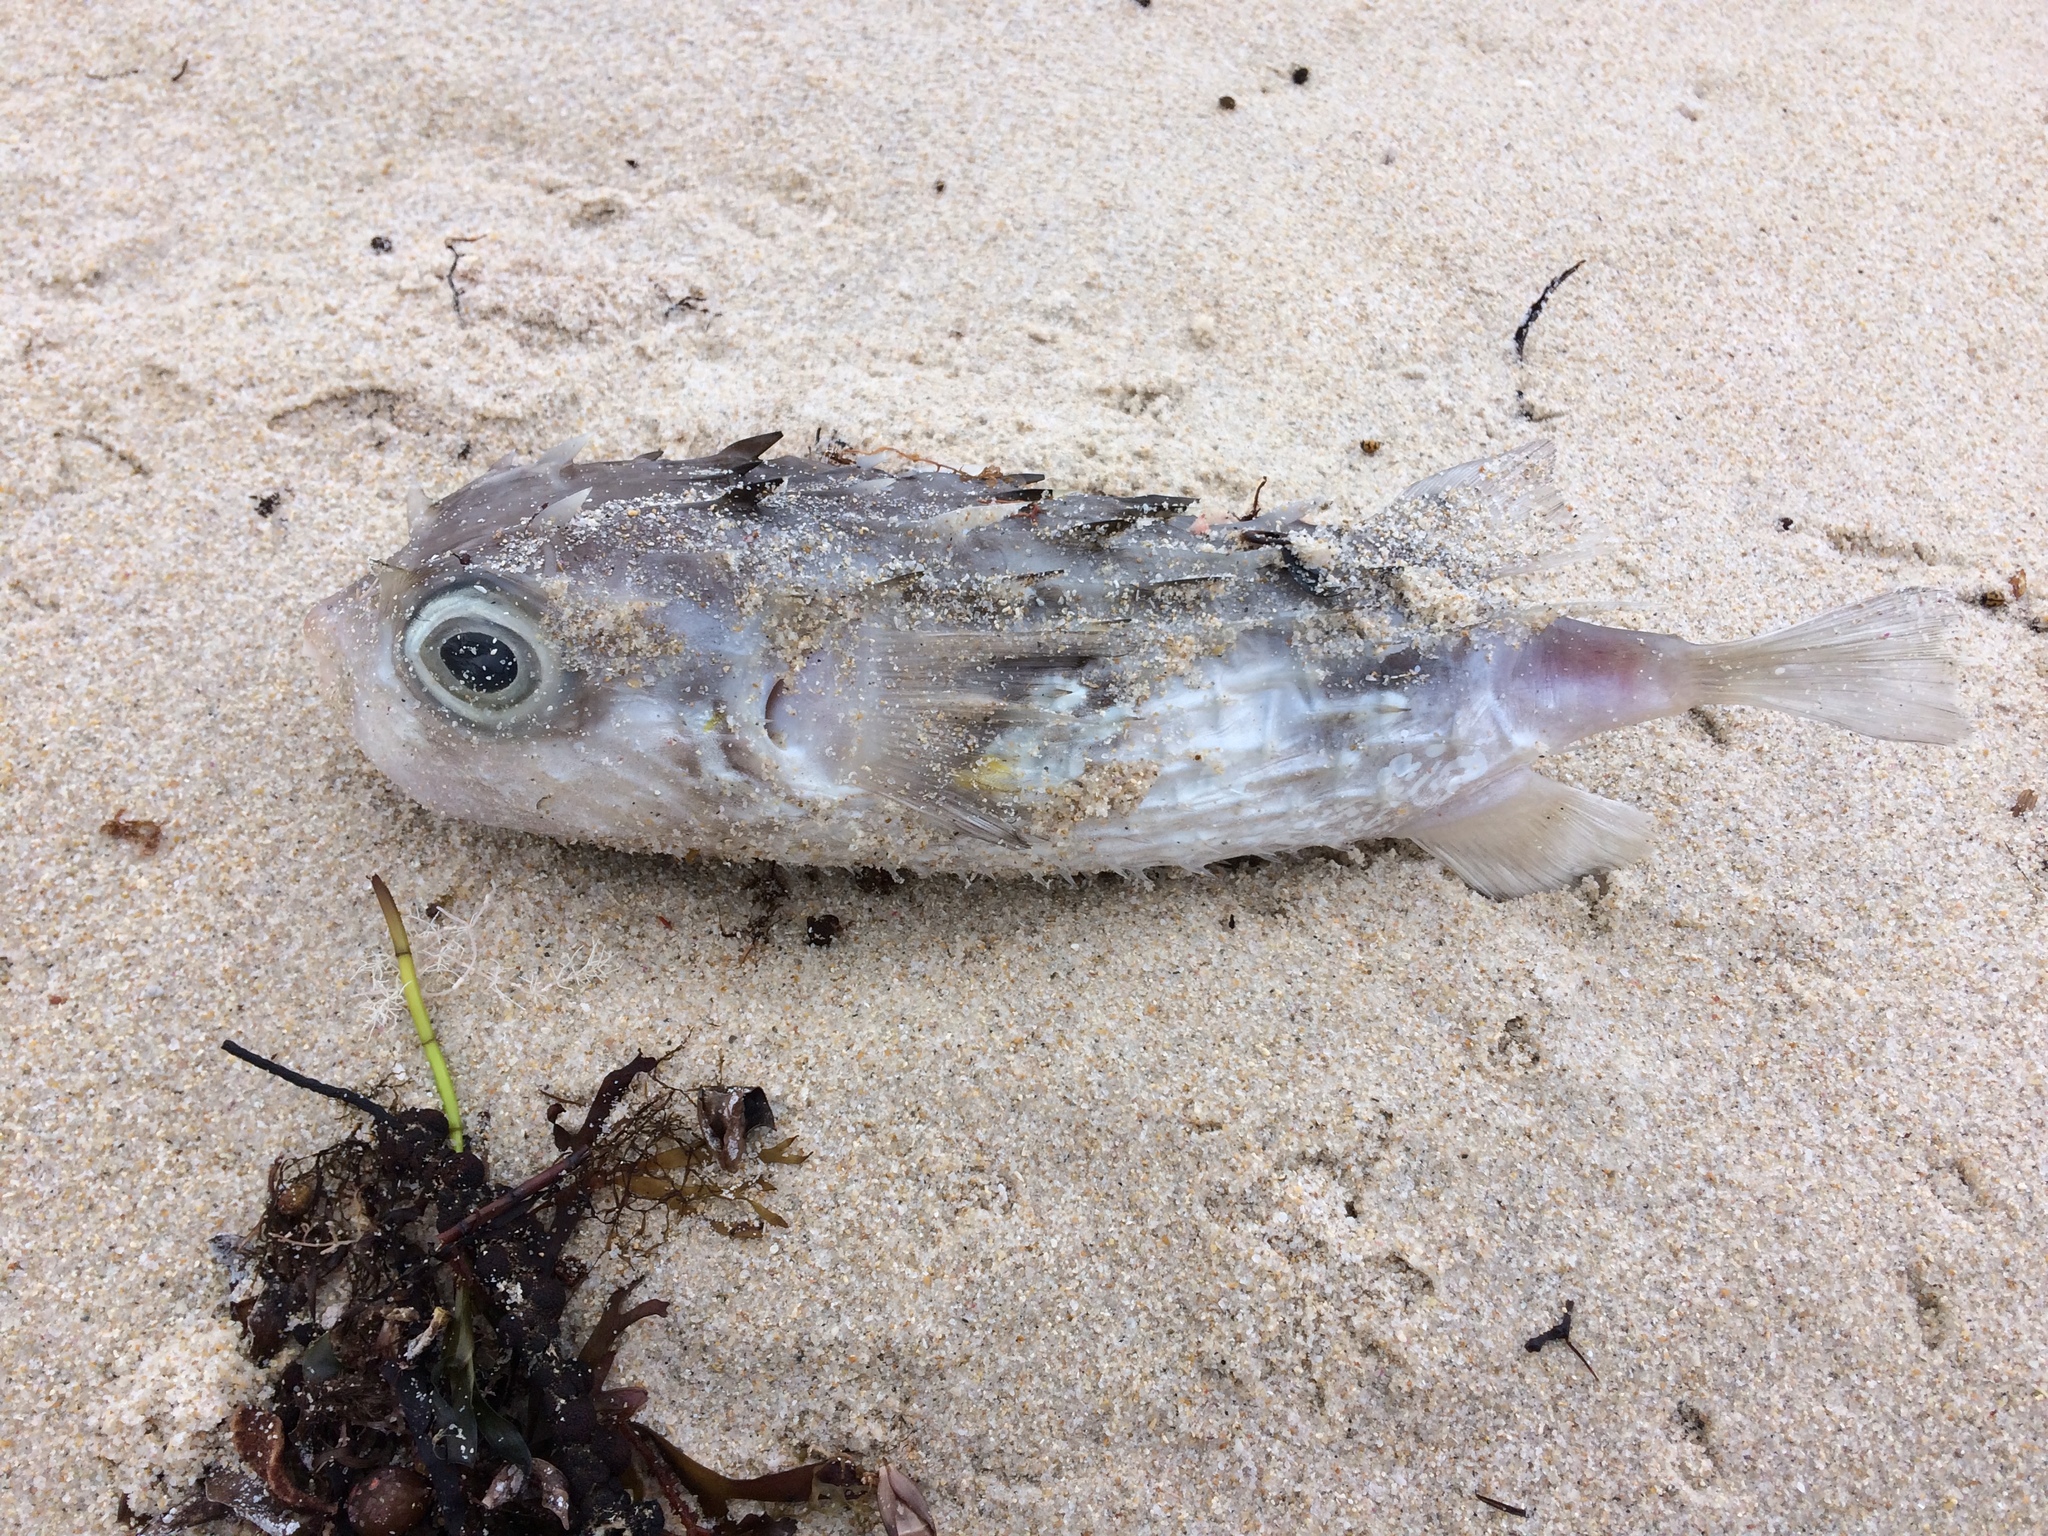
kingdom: Animalia
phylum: Chordata
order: Tetraodontiformes
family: Diodontidae
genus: Allomycterus
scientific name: Allomycterus pilatus
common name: No common name
